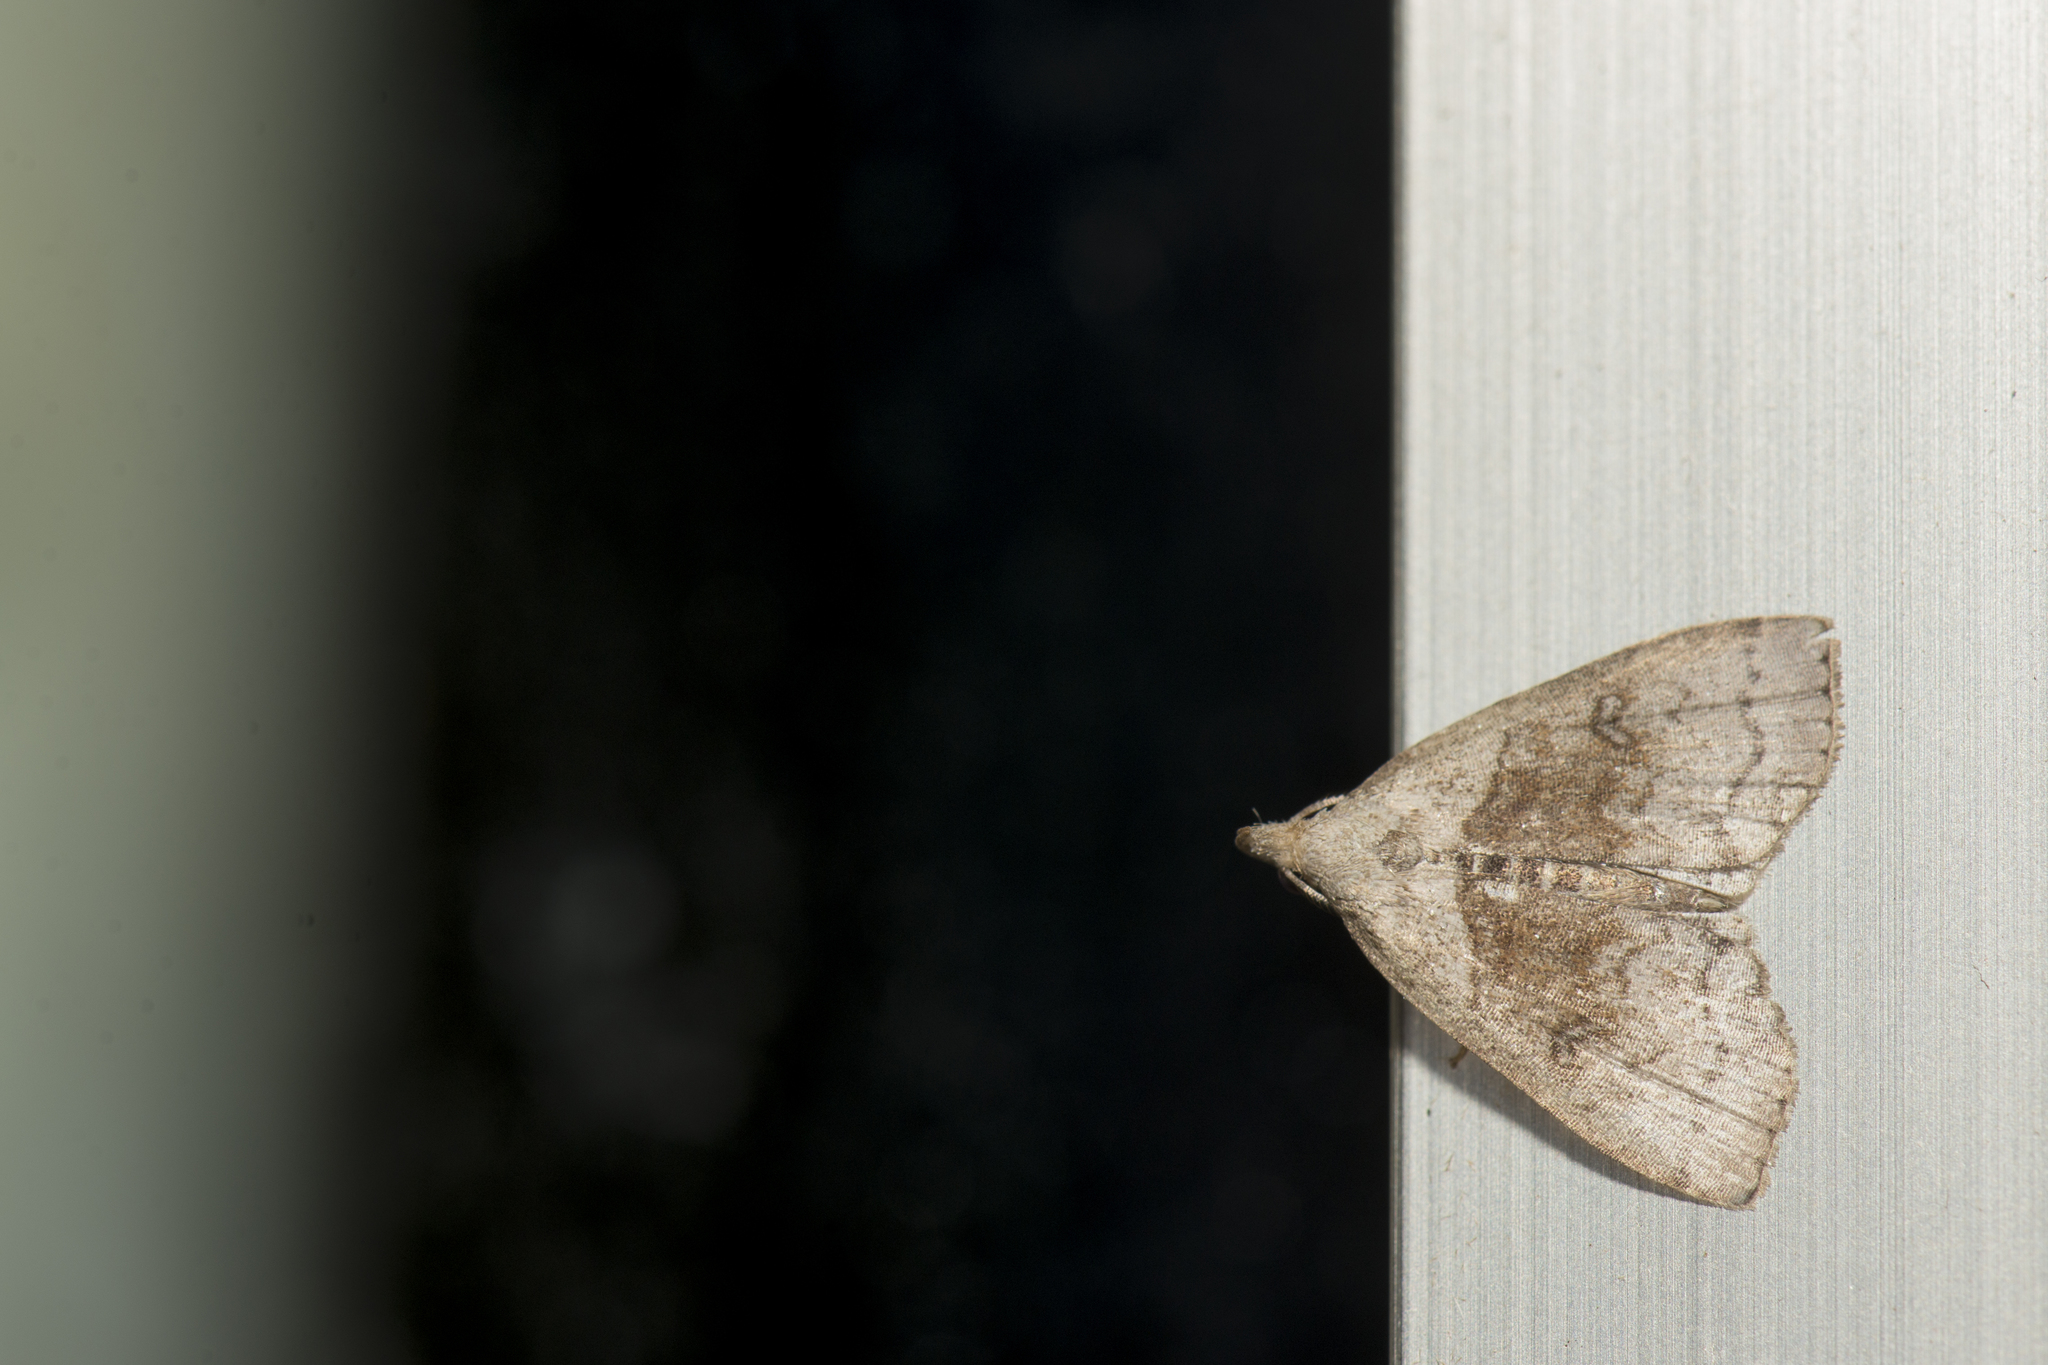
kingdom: Animalia
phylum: Arthropoda
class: Insecta
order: Lepidoptera
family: Erebidae
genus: Polypogon
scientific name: Polypogon kurokoi
